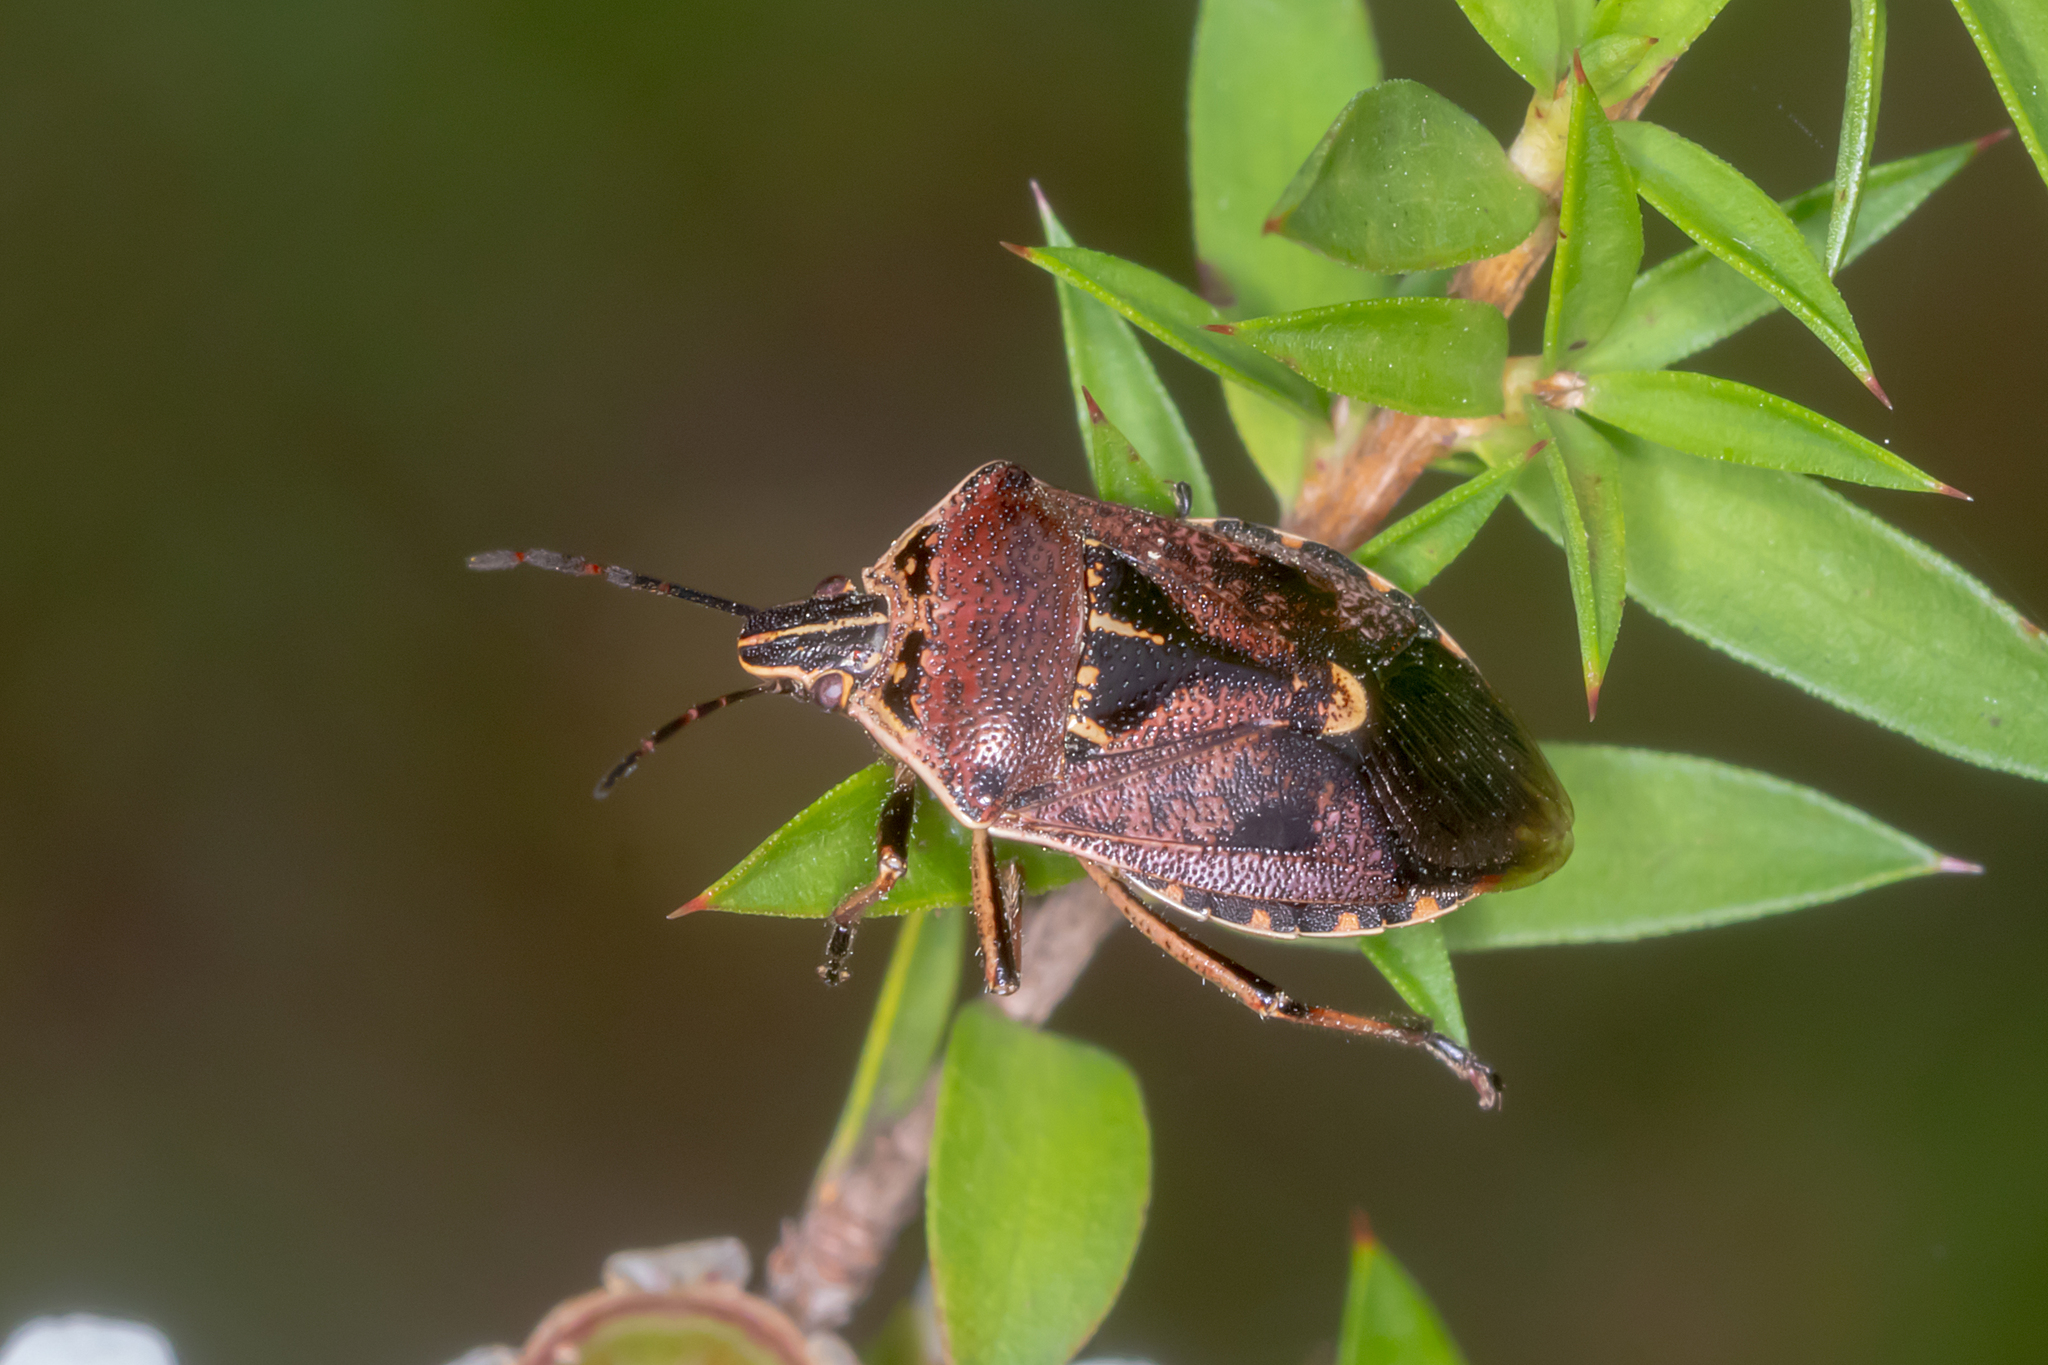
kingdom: Animalia
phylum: Arthropoda
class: Insecta
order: Hemiptera
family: Pentatomidae
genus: Cermatulus
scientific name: Cermatulus nasalis
